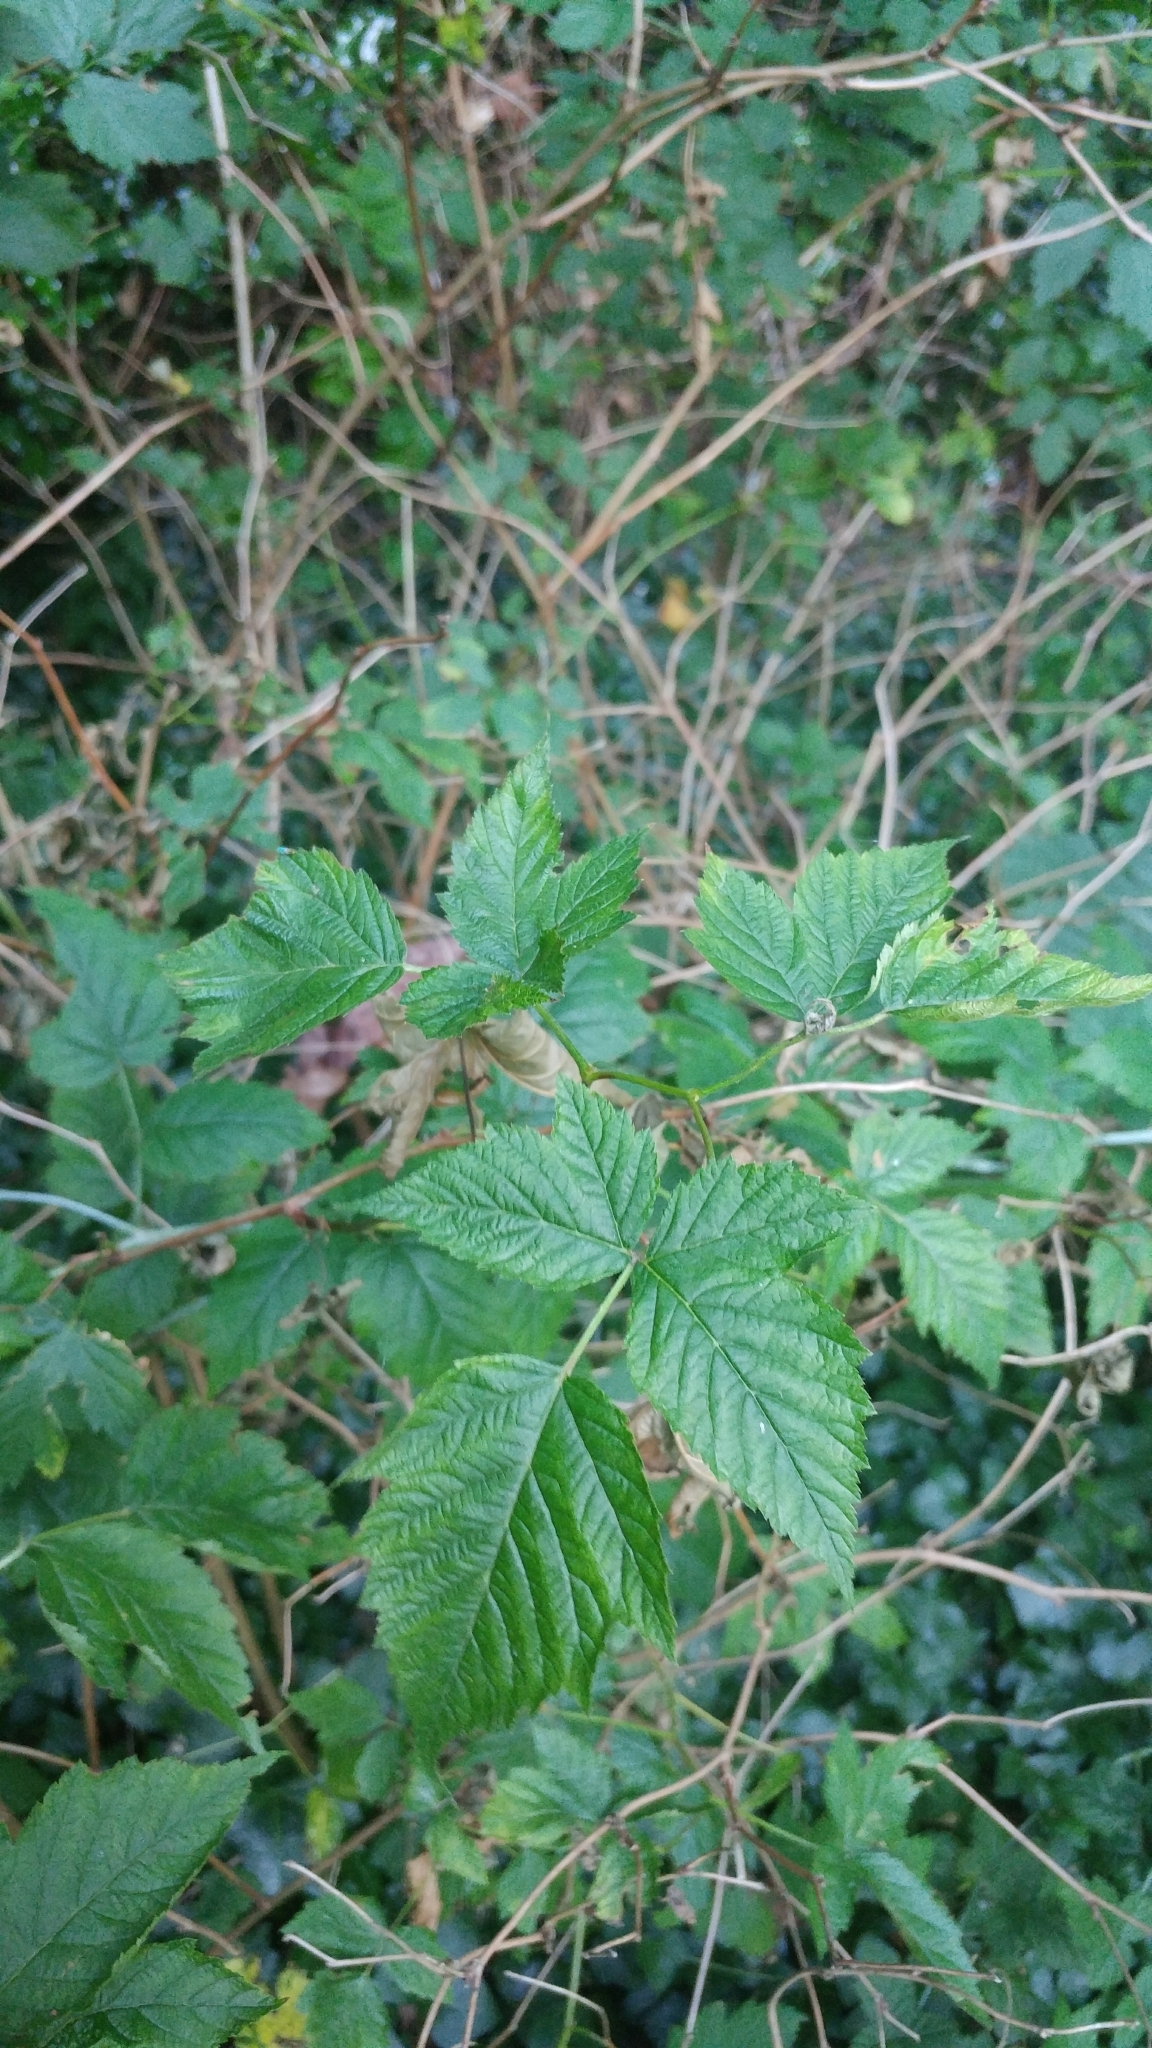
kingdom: Plantae
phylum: Tracheophyta
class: Magnoliopsida
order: Rosales
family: Rosaceae
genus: Rubus
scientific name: Rubus spectabilis
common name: Salmonberry
